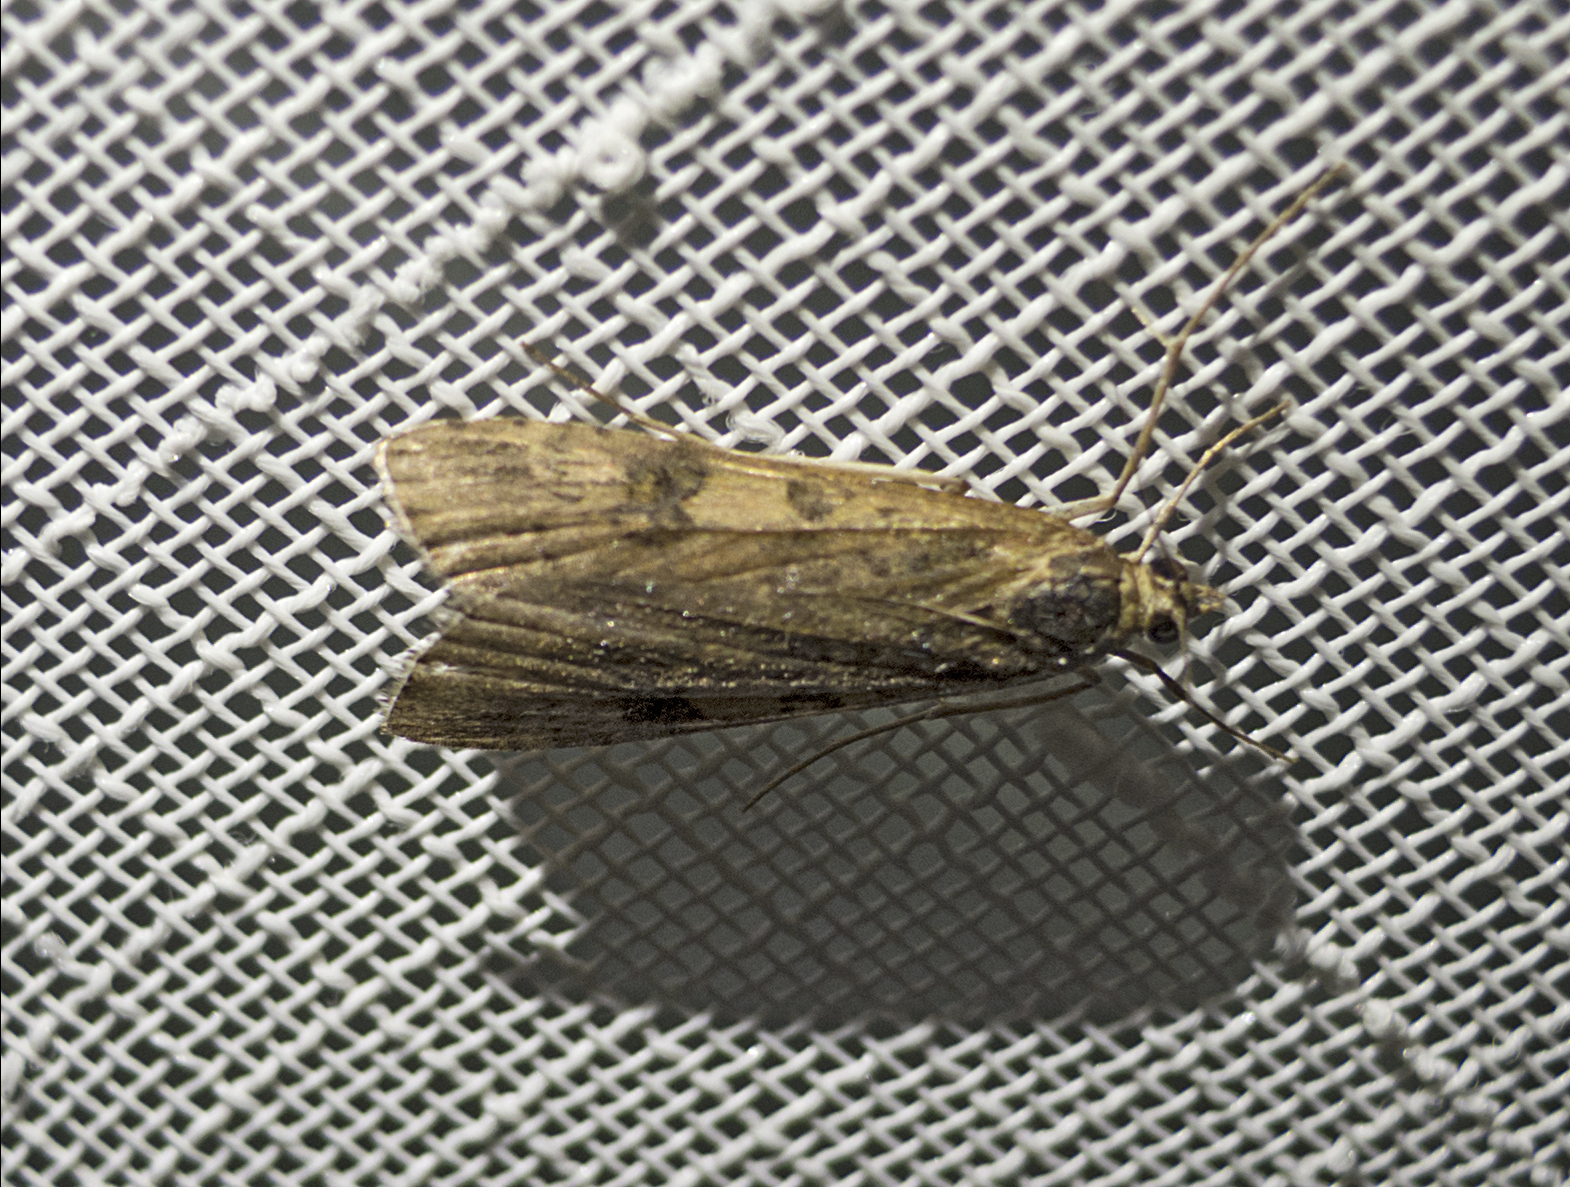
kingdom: Animalia
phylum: Arthropoda
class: Insecta
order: Lepidoptera
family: Crambidae
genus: Nomophila
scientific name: Nomophila noctuella
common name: Rush veneer
